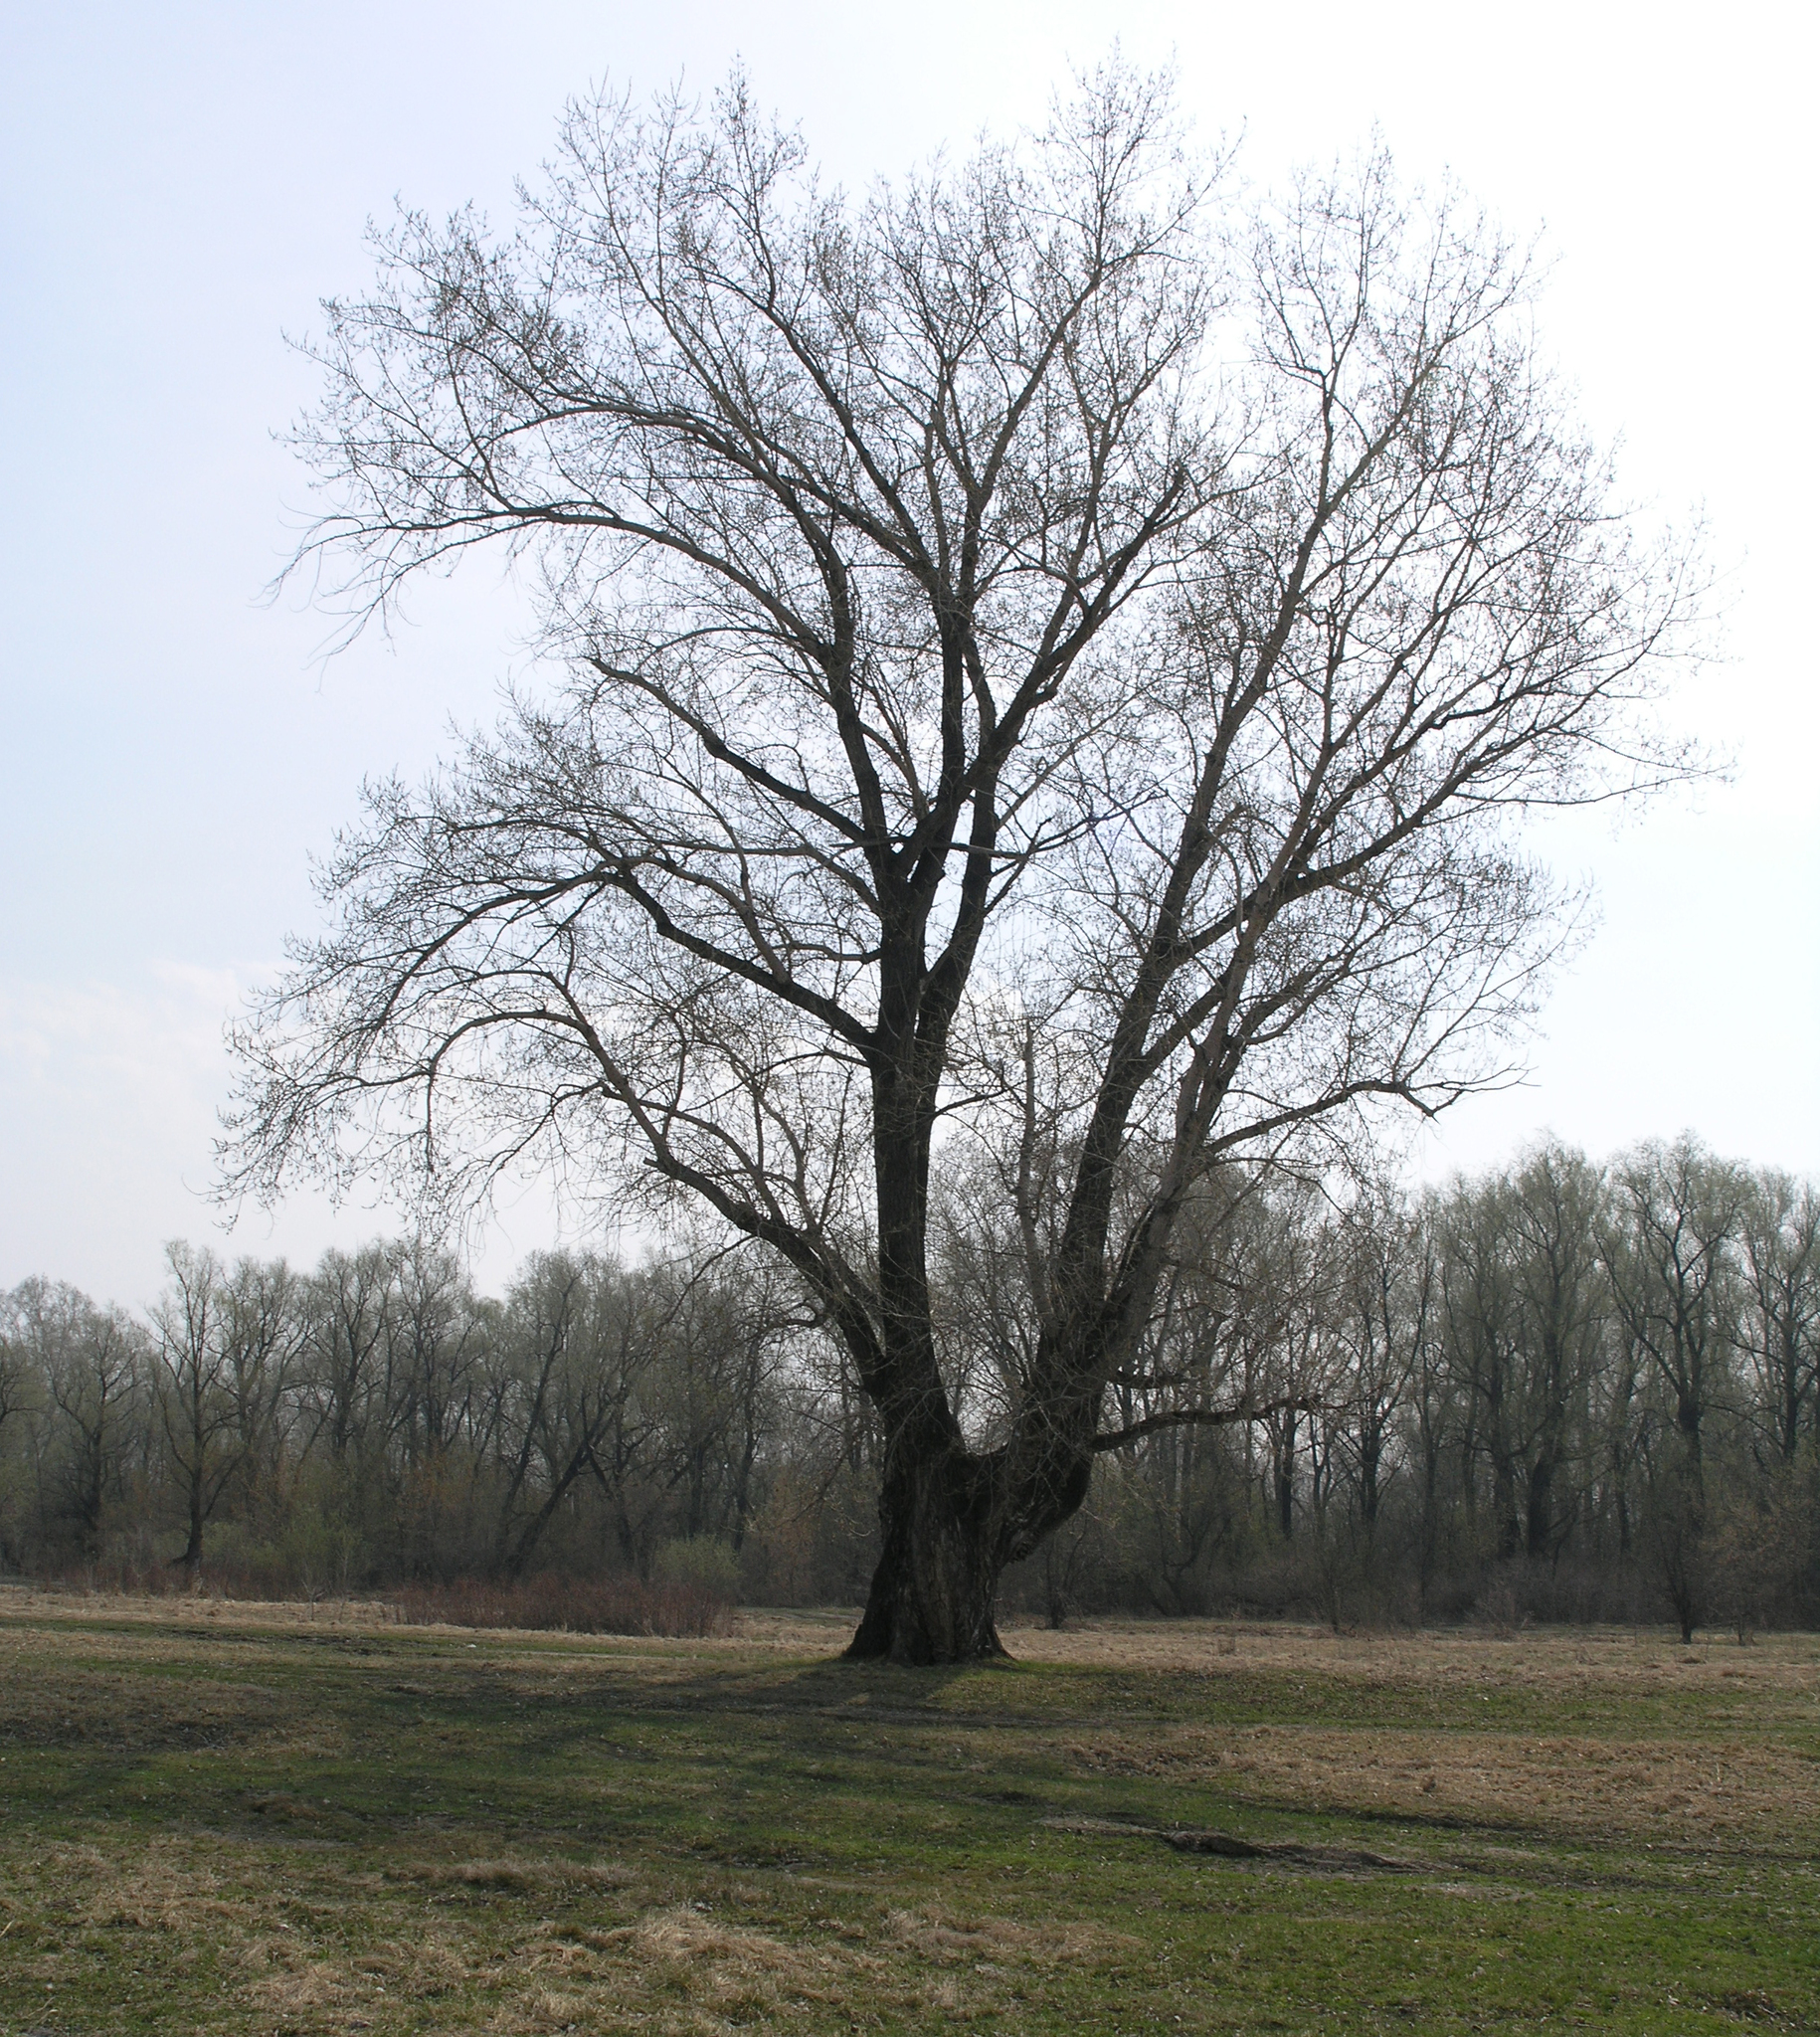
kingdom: Plantae
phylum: Tracheophyta
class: Magnoliopsida
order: Malpighiales
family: Salicaceae
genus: Salix
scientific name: Salix alba
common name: White willow
